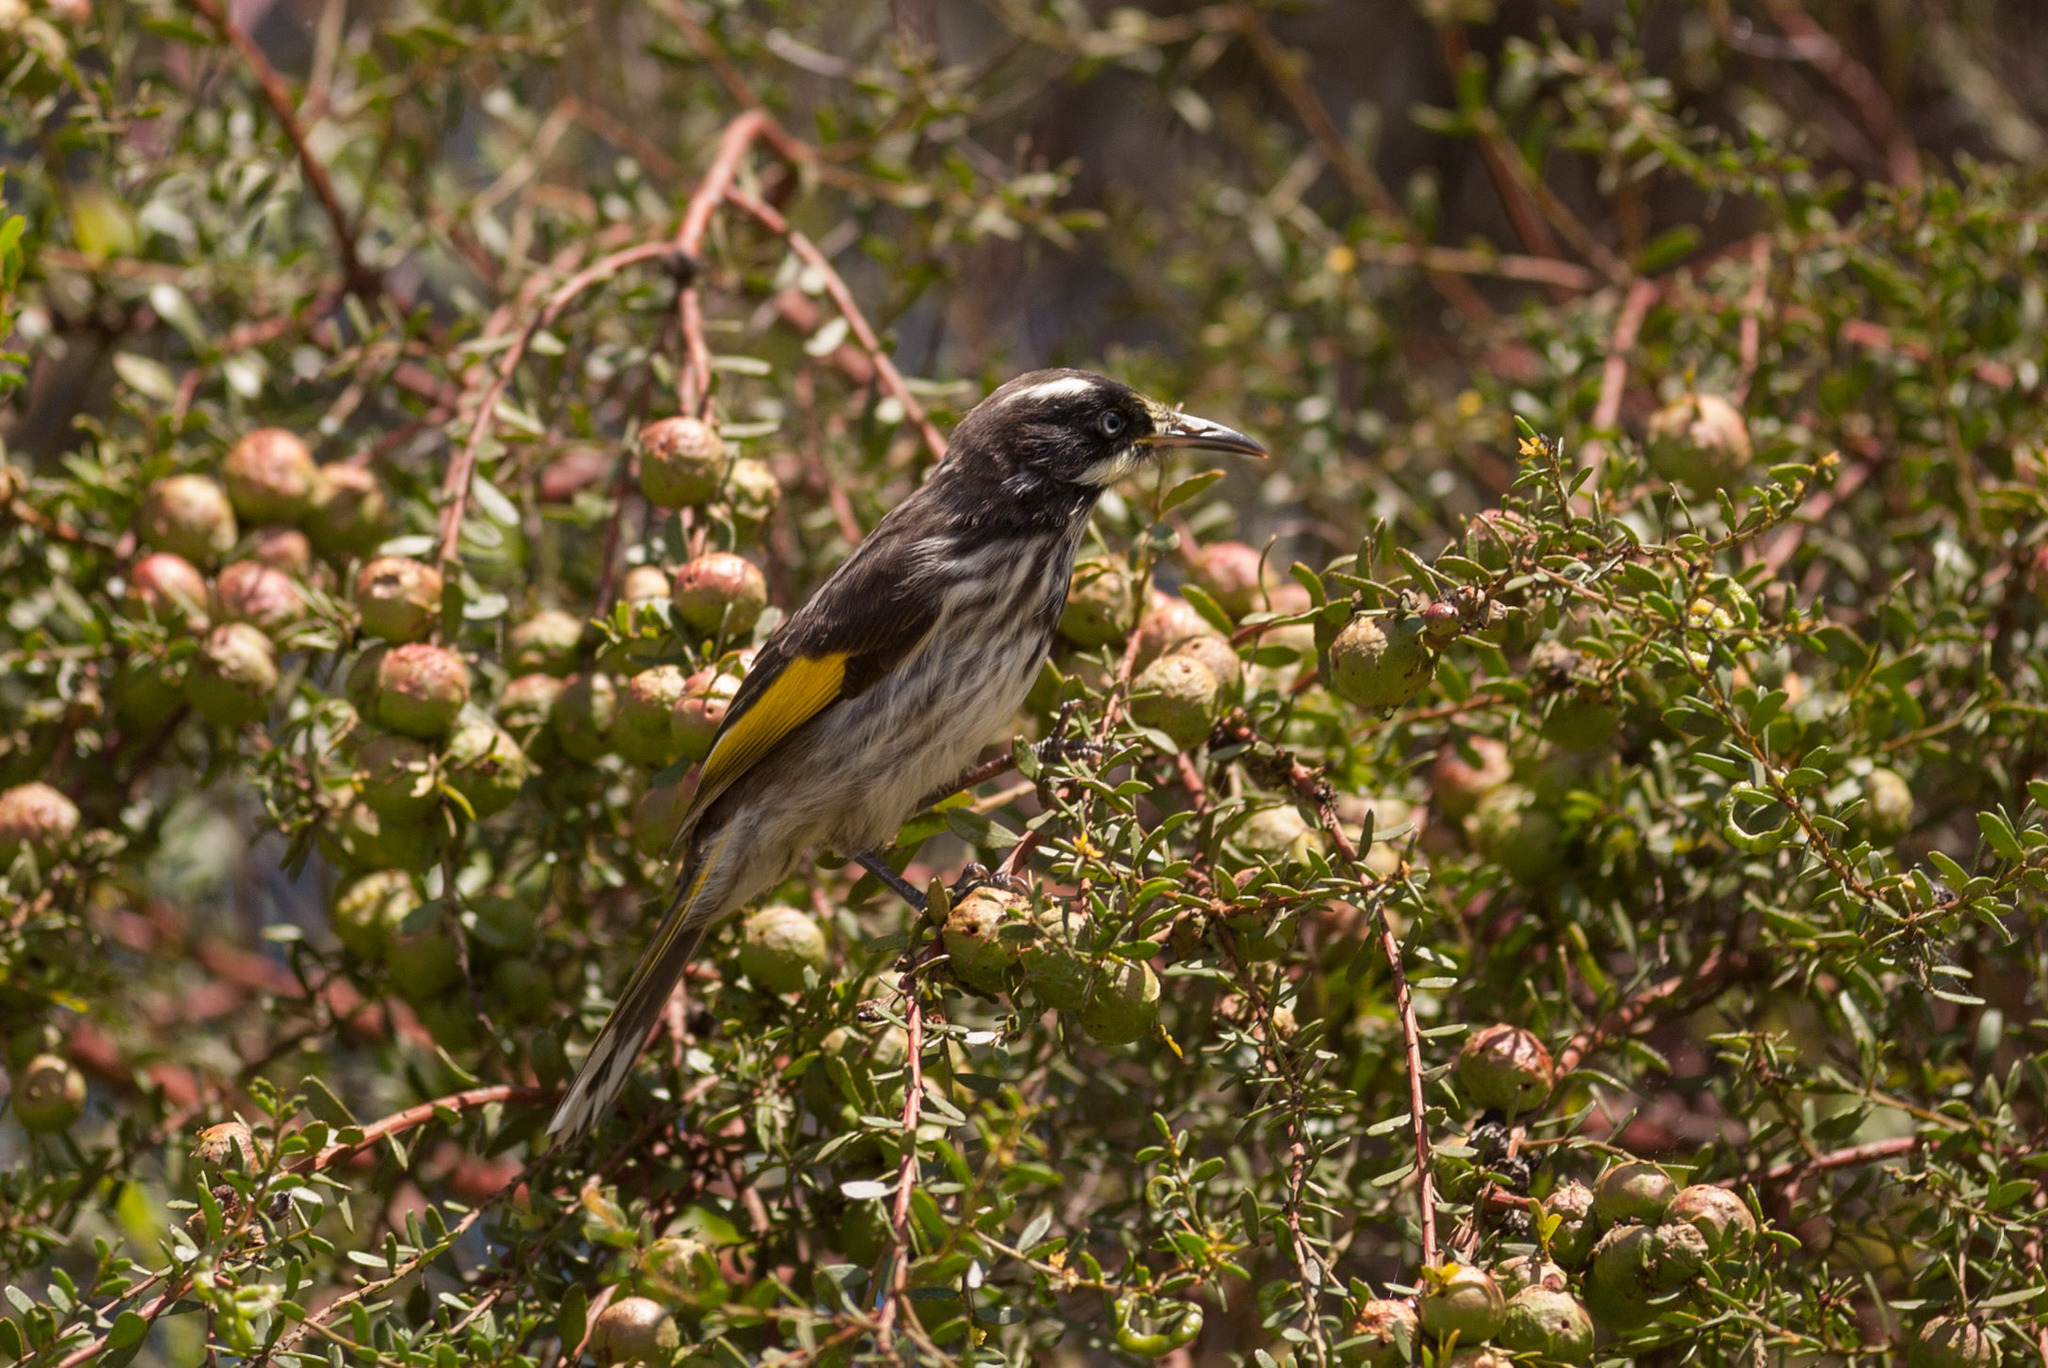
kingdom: Animalia
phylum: Chordata
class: Aves
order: Passeriformes
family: Meliphagidae
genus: Phylidonyris
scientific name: Phylidonyris novaehollandiae
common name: New holland honeyeater
